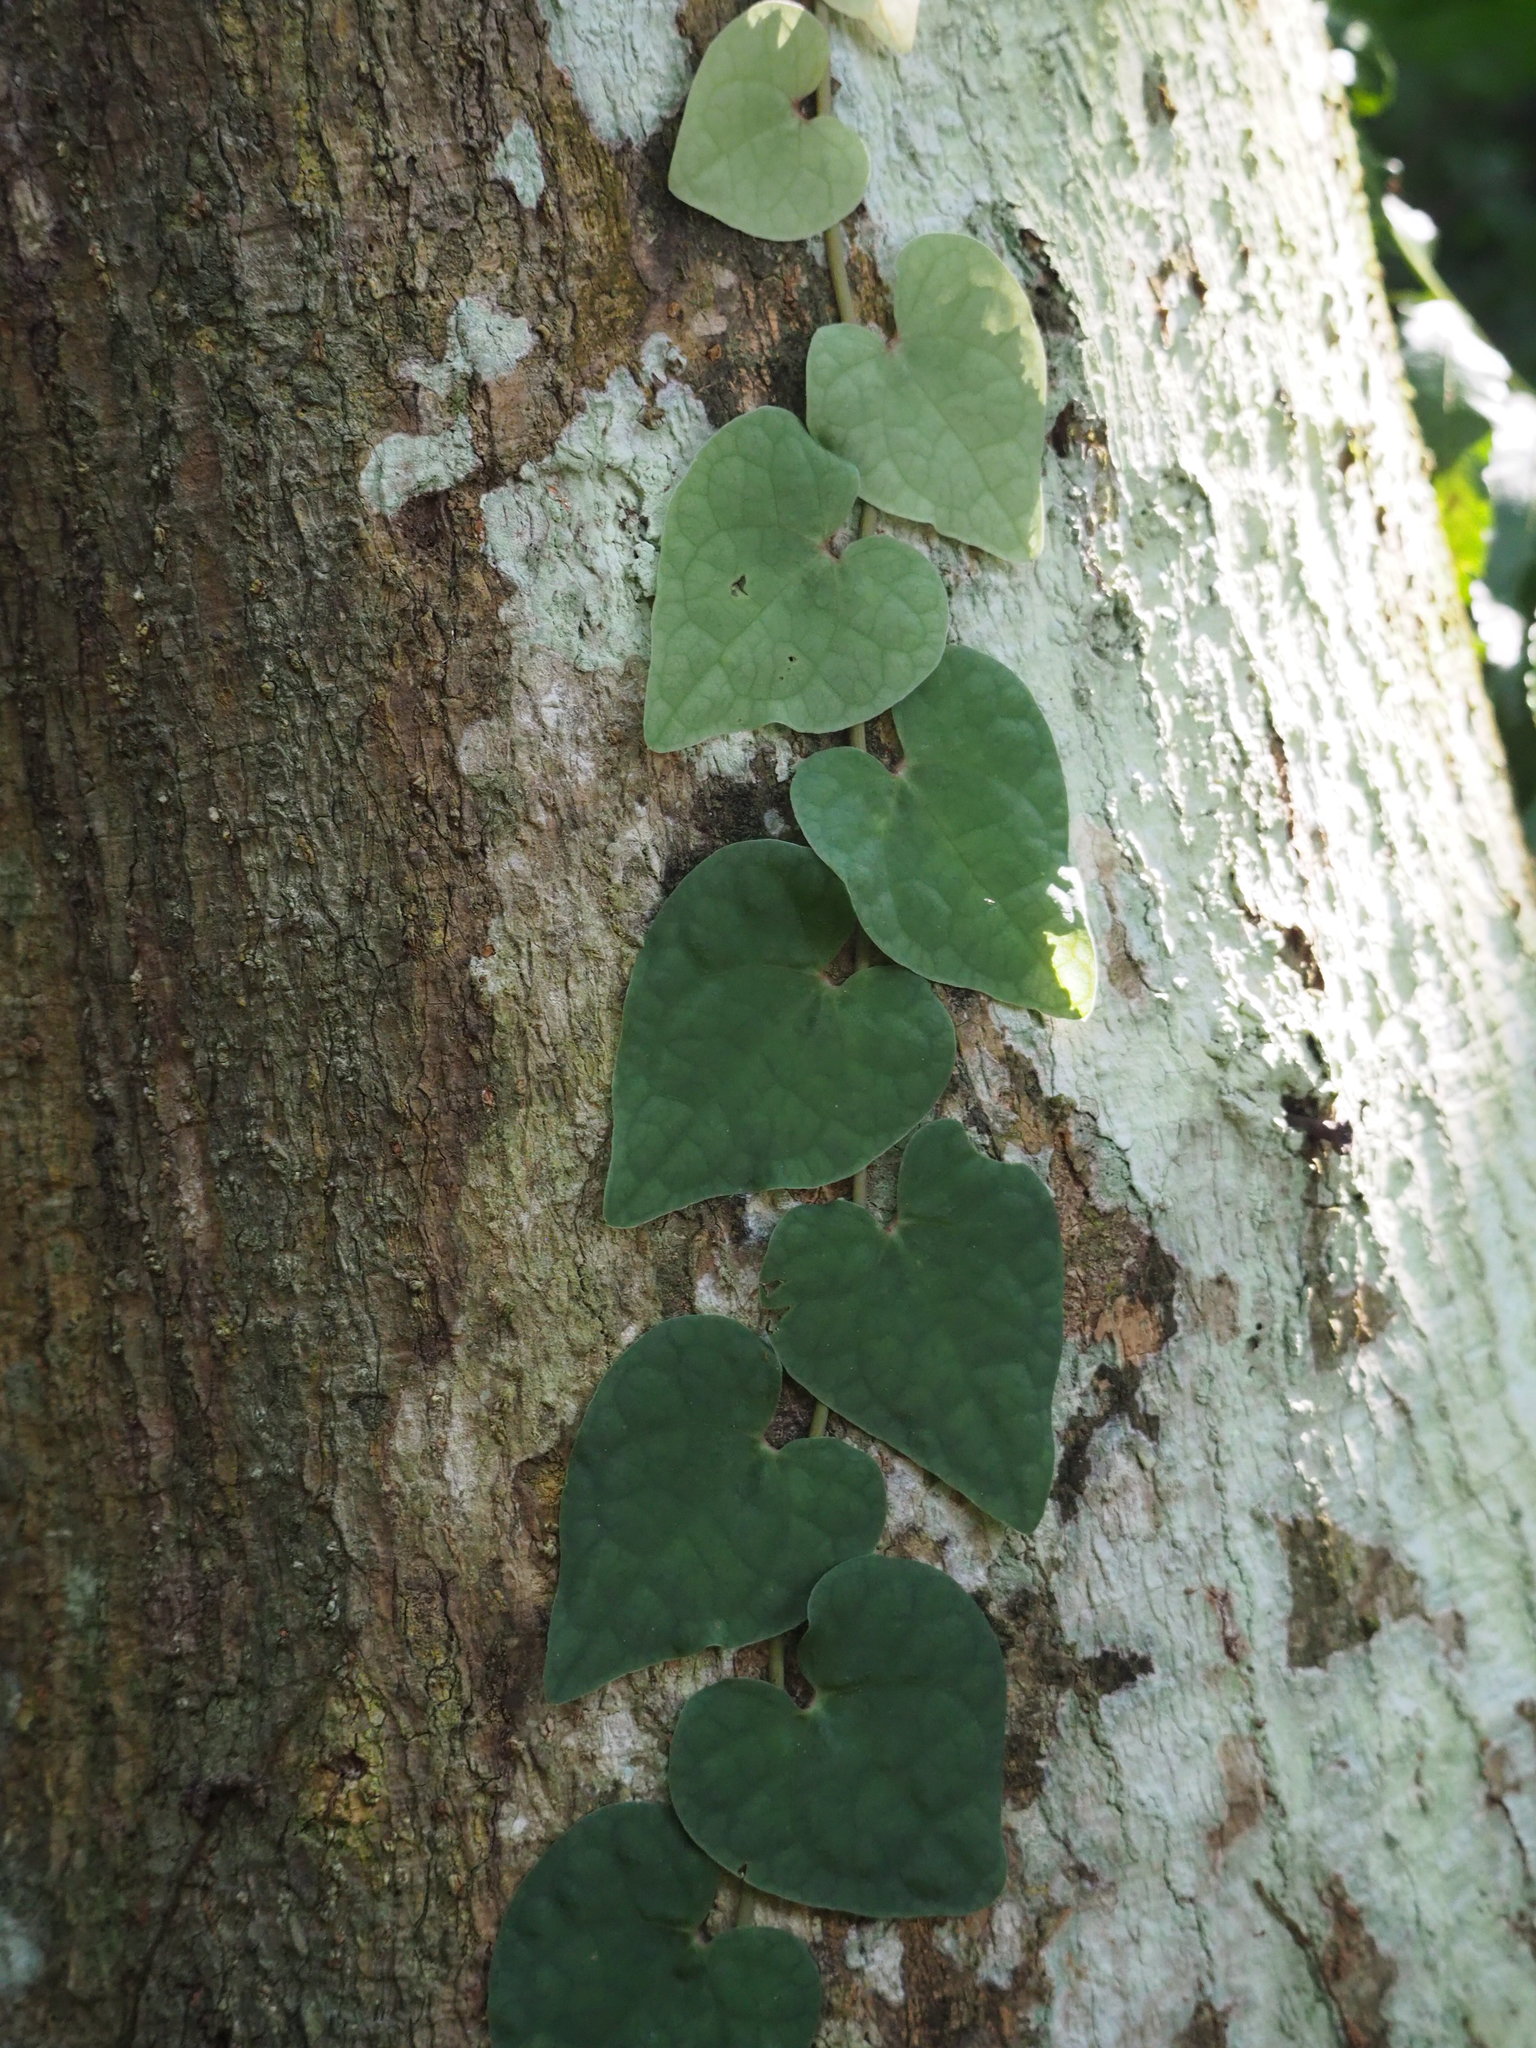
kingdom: Plantae
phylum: Tracheophyta
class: Magnoliopsida
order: Piperales
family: Piperaceae
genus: Piper
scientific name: Piper taiwanense
